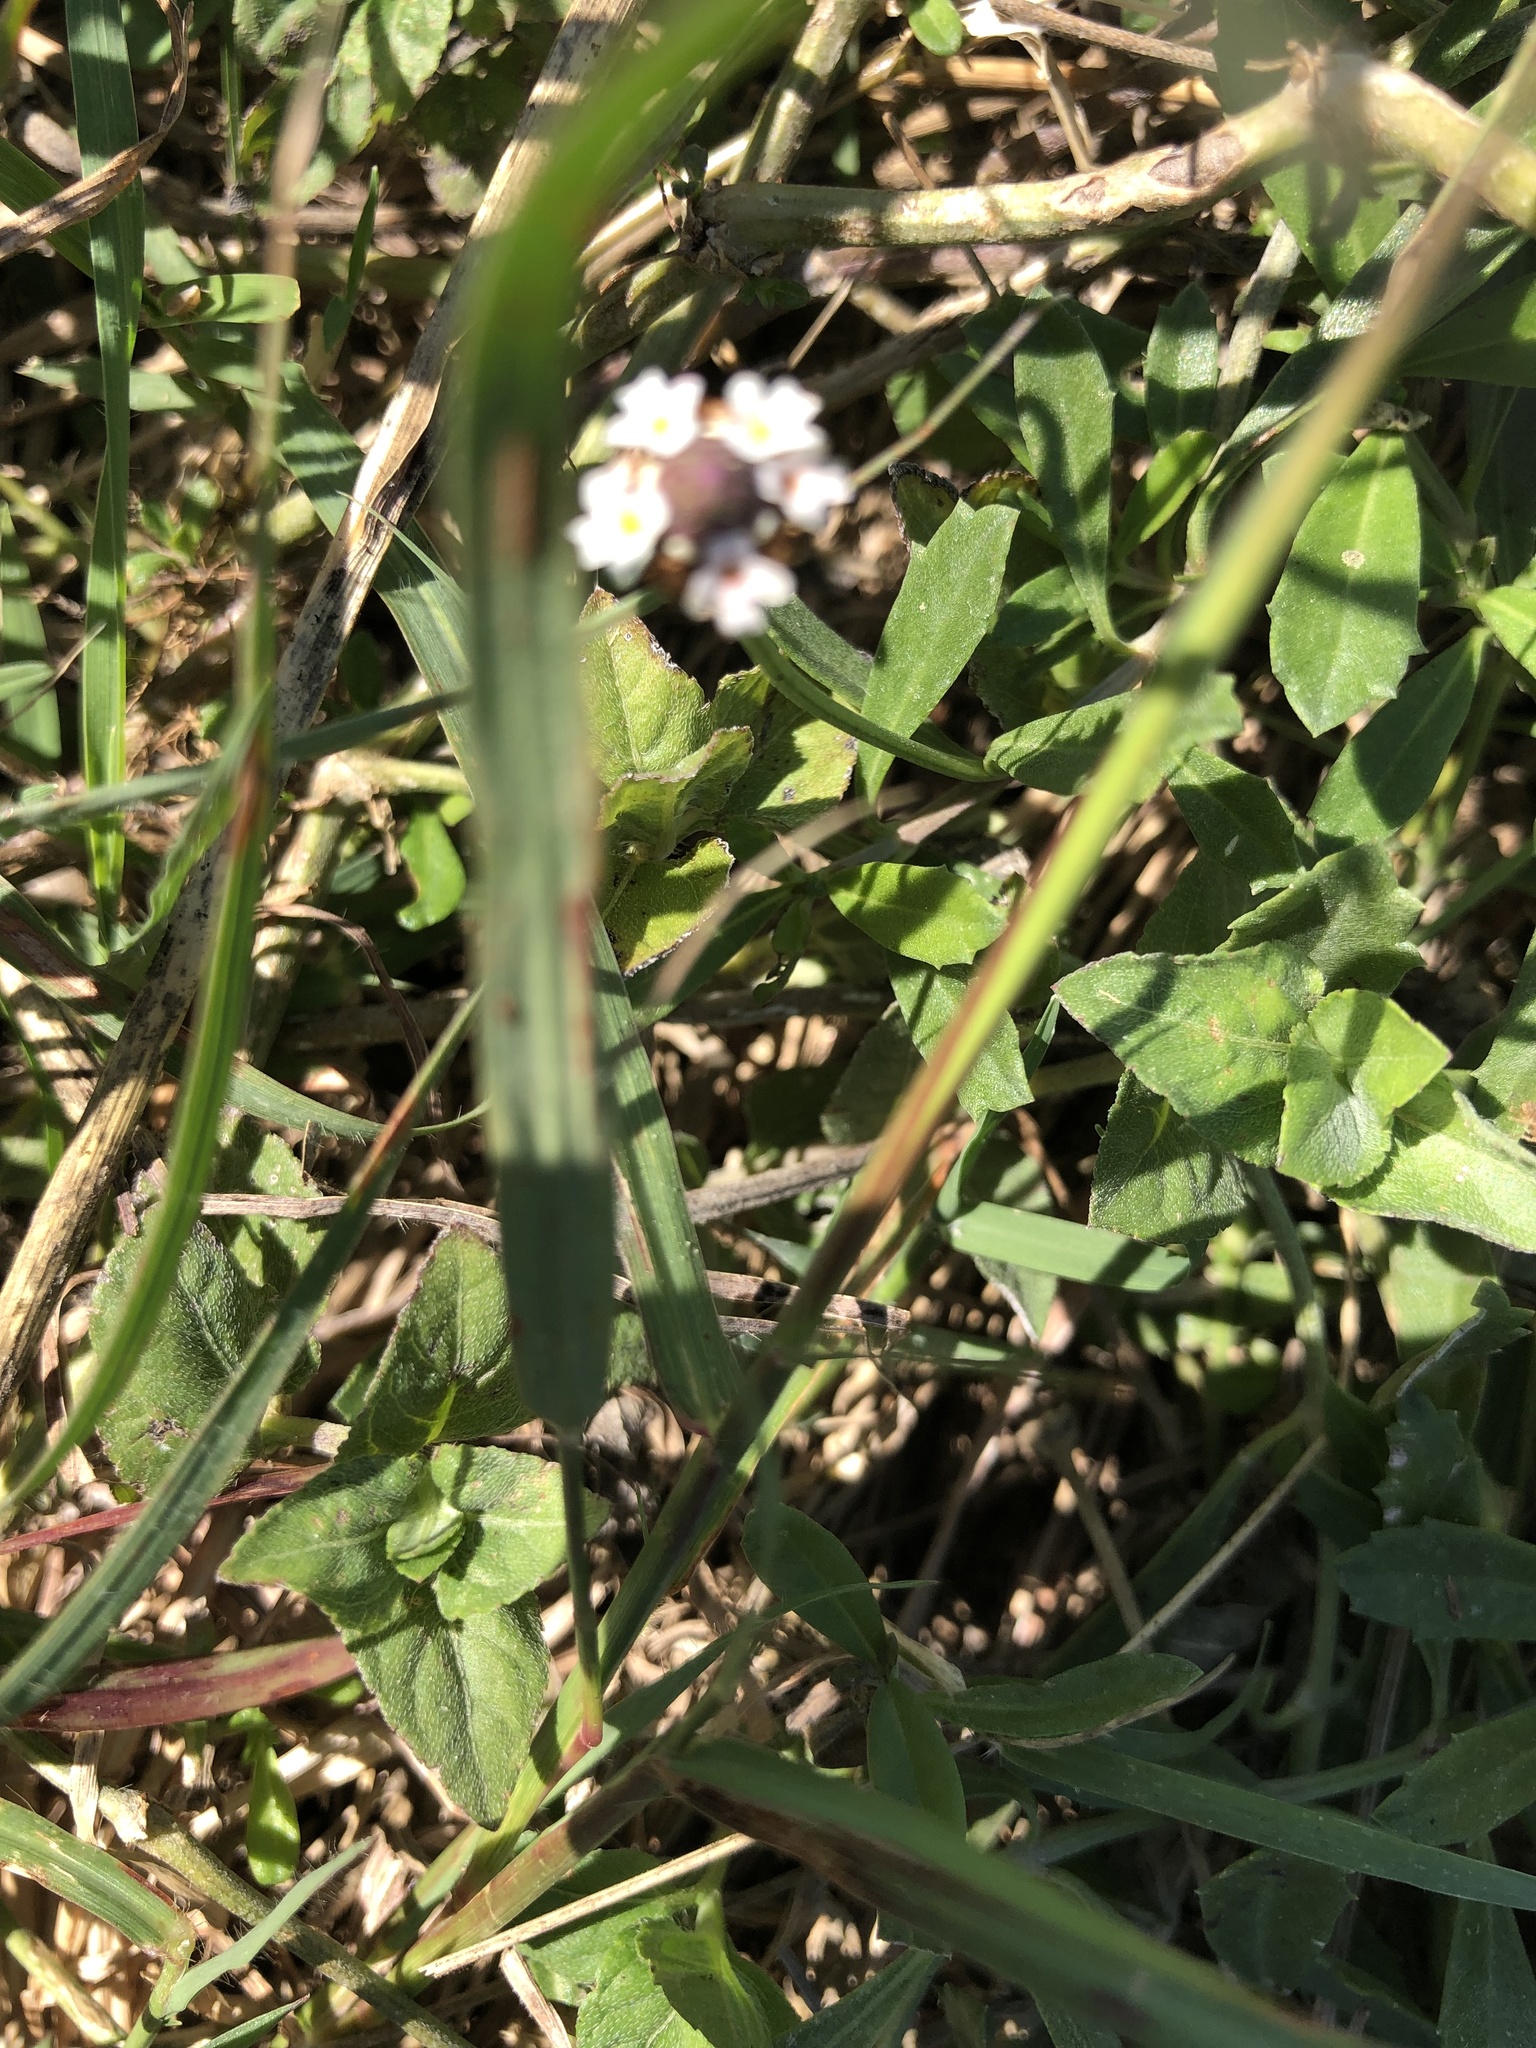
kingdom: Plantae
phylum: Tracheophyta
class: Magnoliopsida
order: Lamiales
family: Verbenaceae
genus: Phyla
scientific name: Phyla nodiflora
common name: Frogfruit
